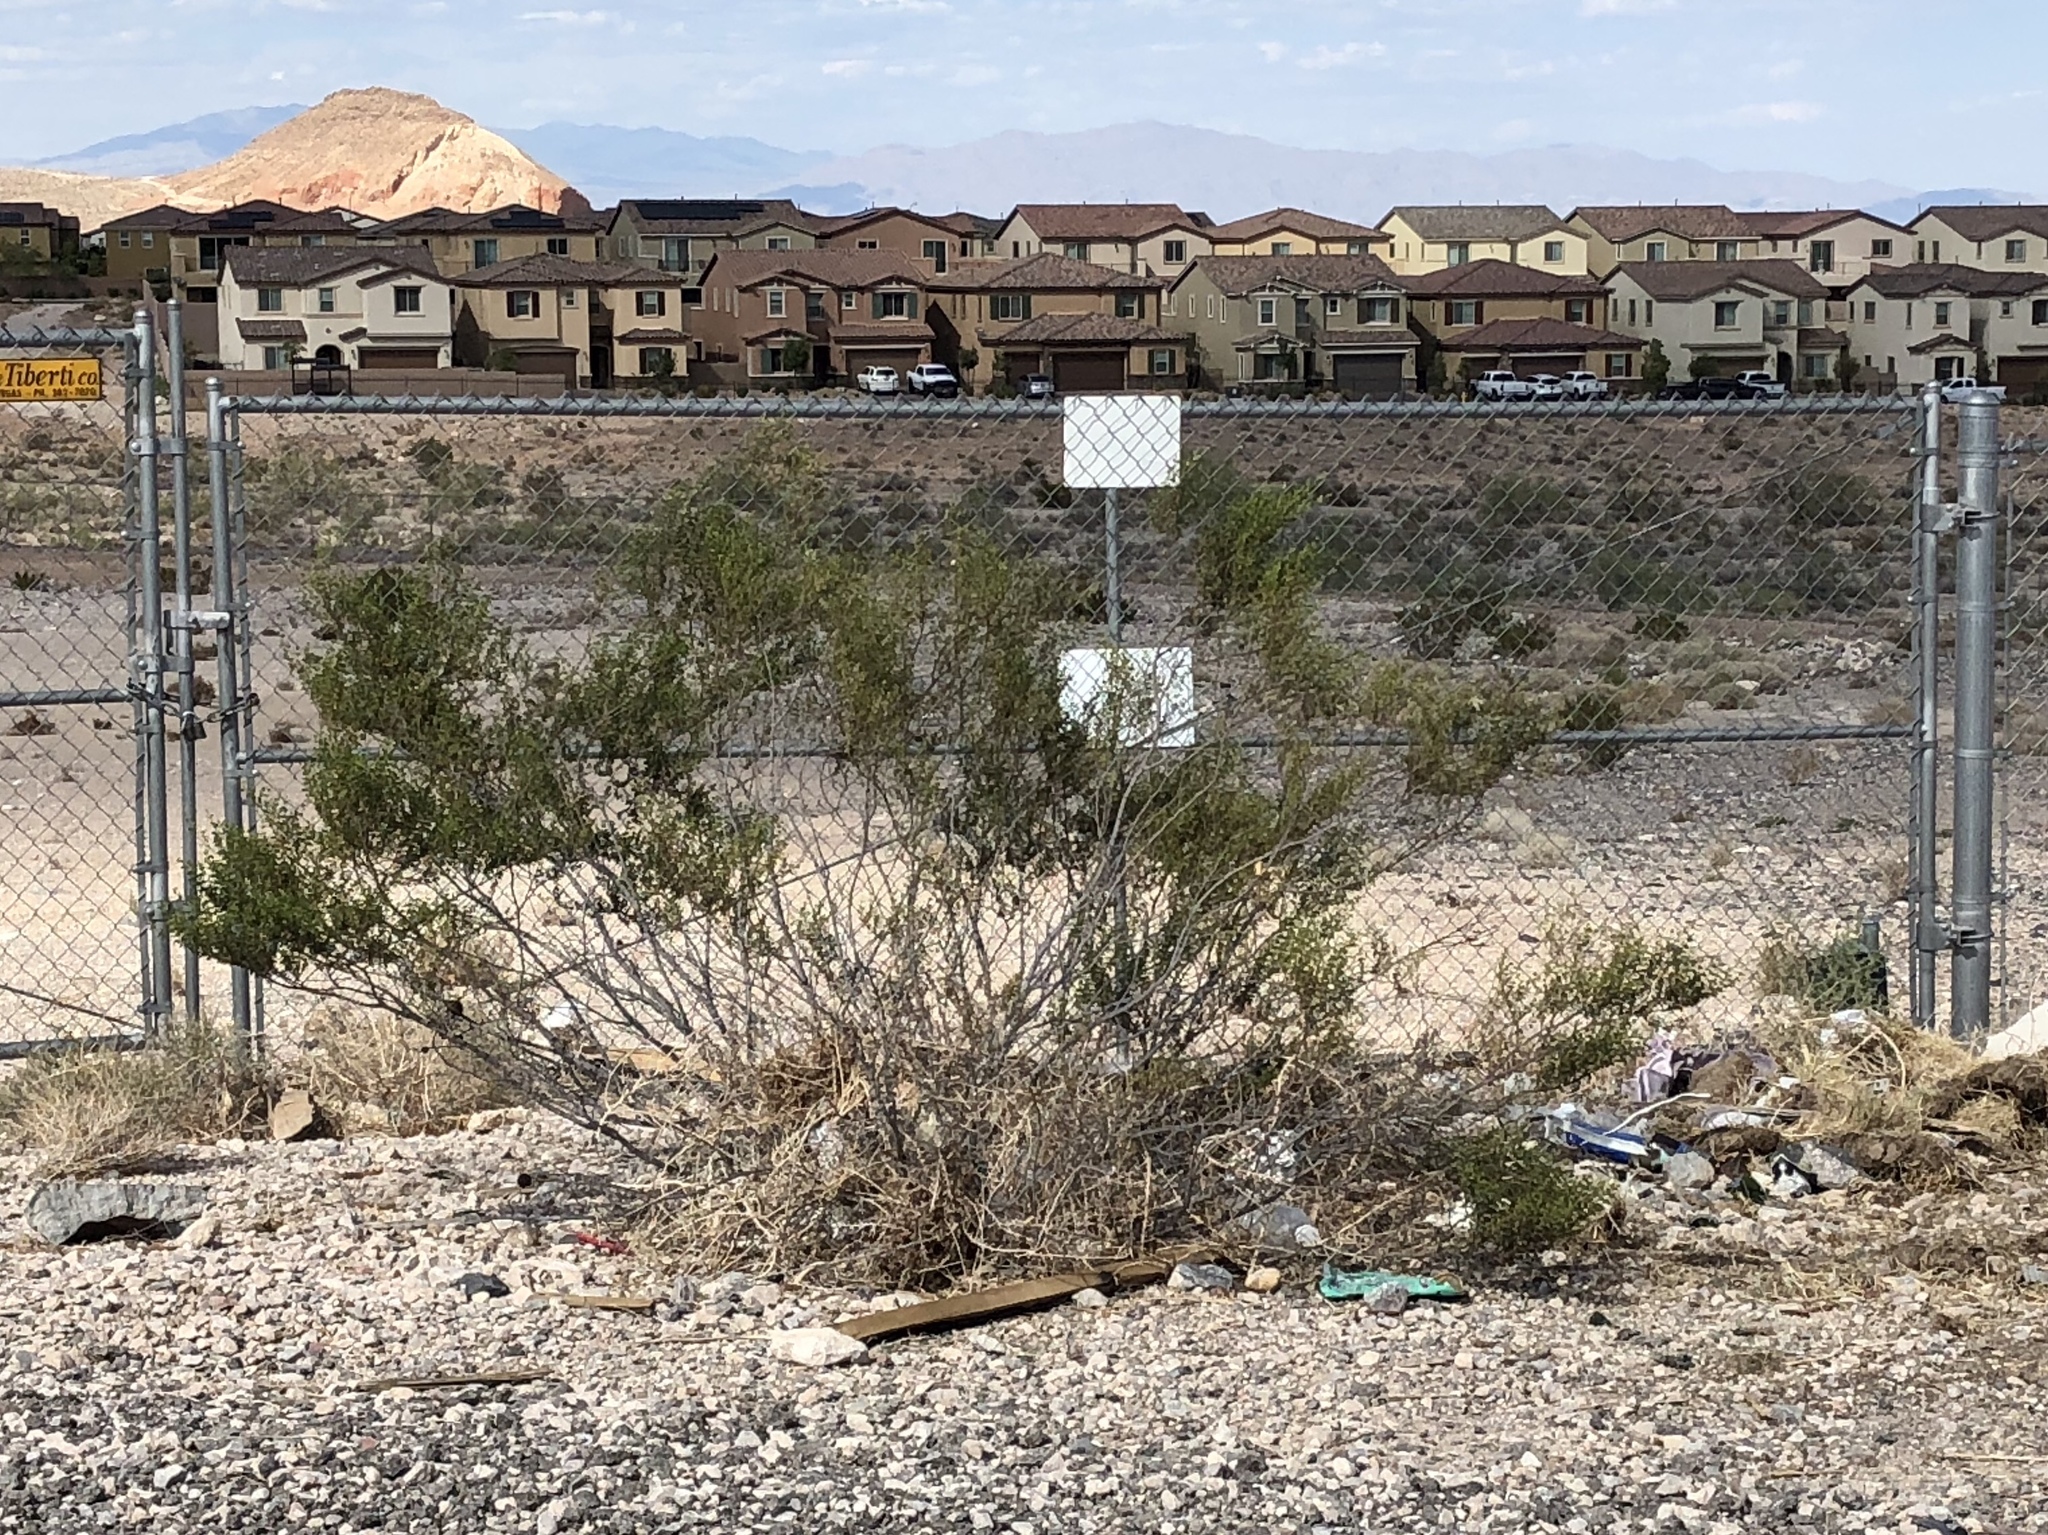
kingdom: Plantae
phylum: Tracheophyta
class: Magnoliopsida
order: Zygophyllales
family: Zygophyllaceae
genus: Larrea
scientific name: Larrea tridentata
